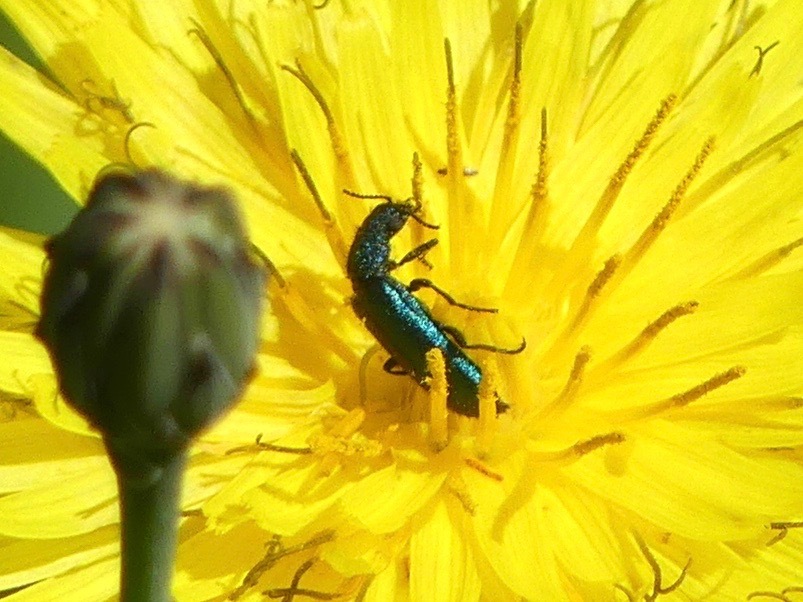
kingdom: Animalia
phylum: Arthropoda
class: Insecta
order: Coleoptera
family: Dasytidae
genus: Psilothrix
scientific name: Psilothrix viridicoerulea
